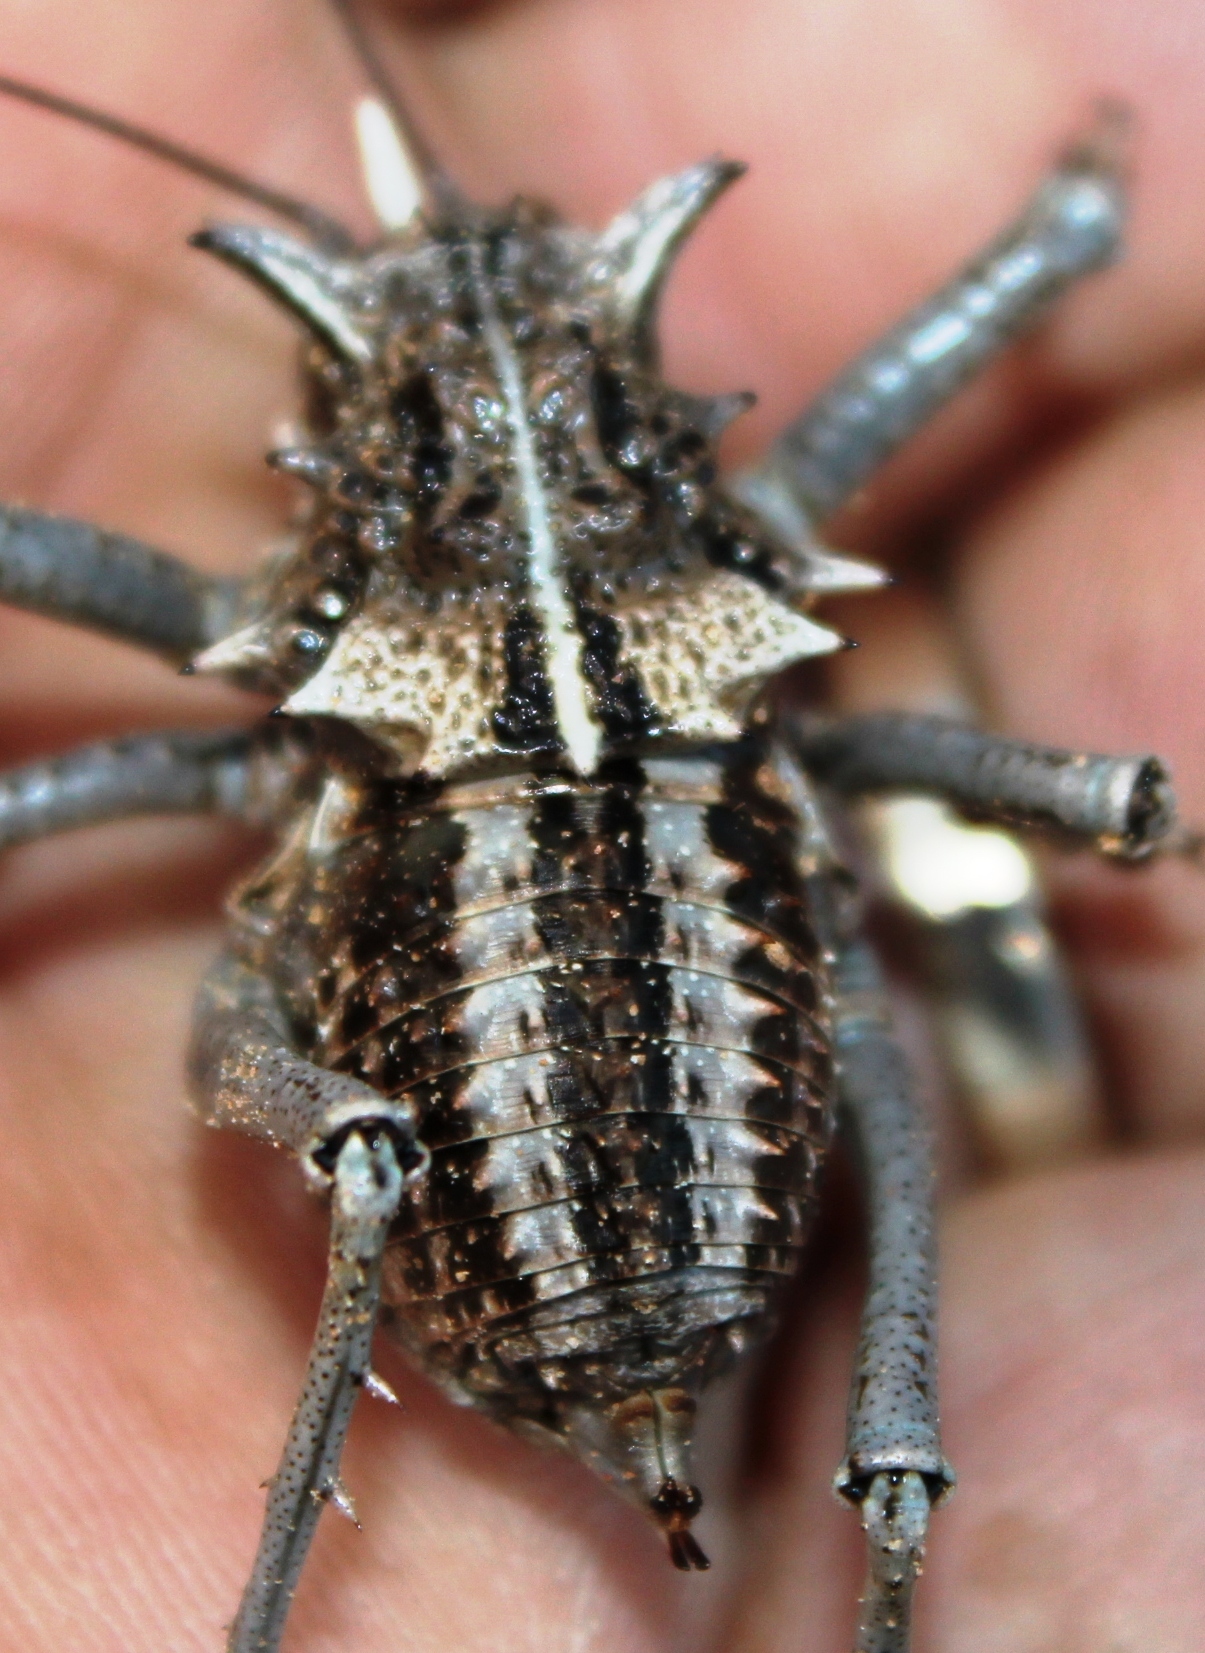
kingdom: Animalia
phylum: Arthropoda
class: Insecta
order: Orthoptera
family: Tettigoniidae
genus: Acanthoproctus
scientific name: Acanthoproctus vittatus
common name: Striped thorny katydid
